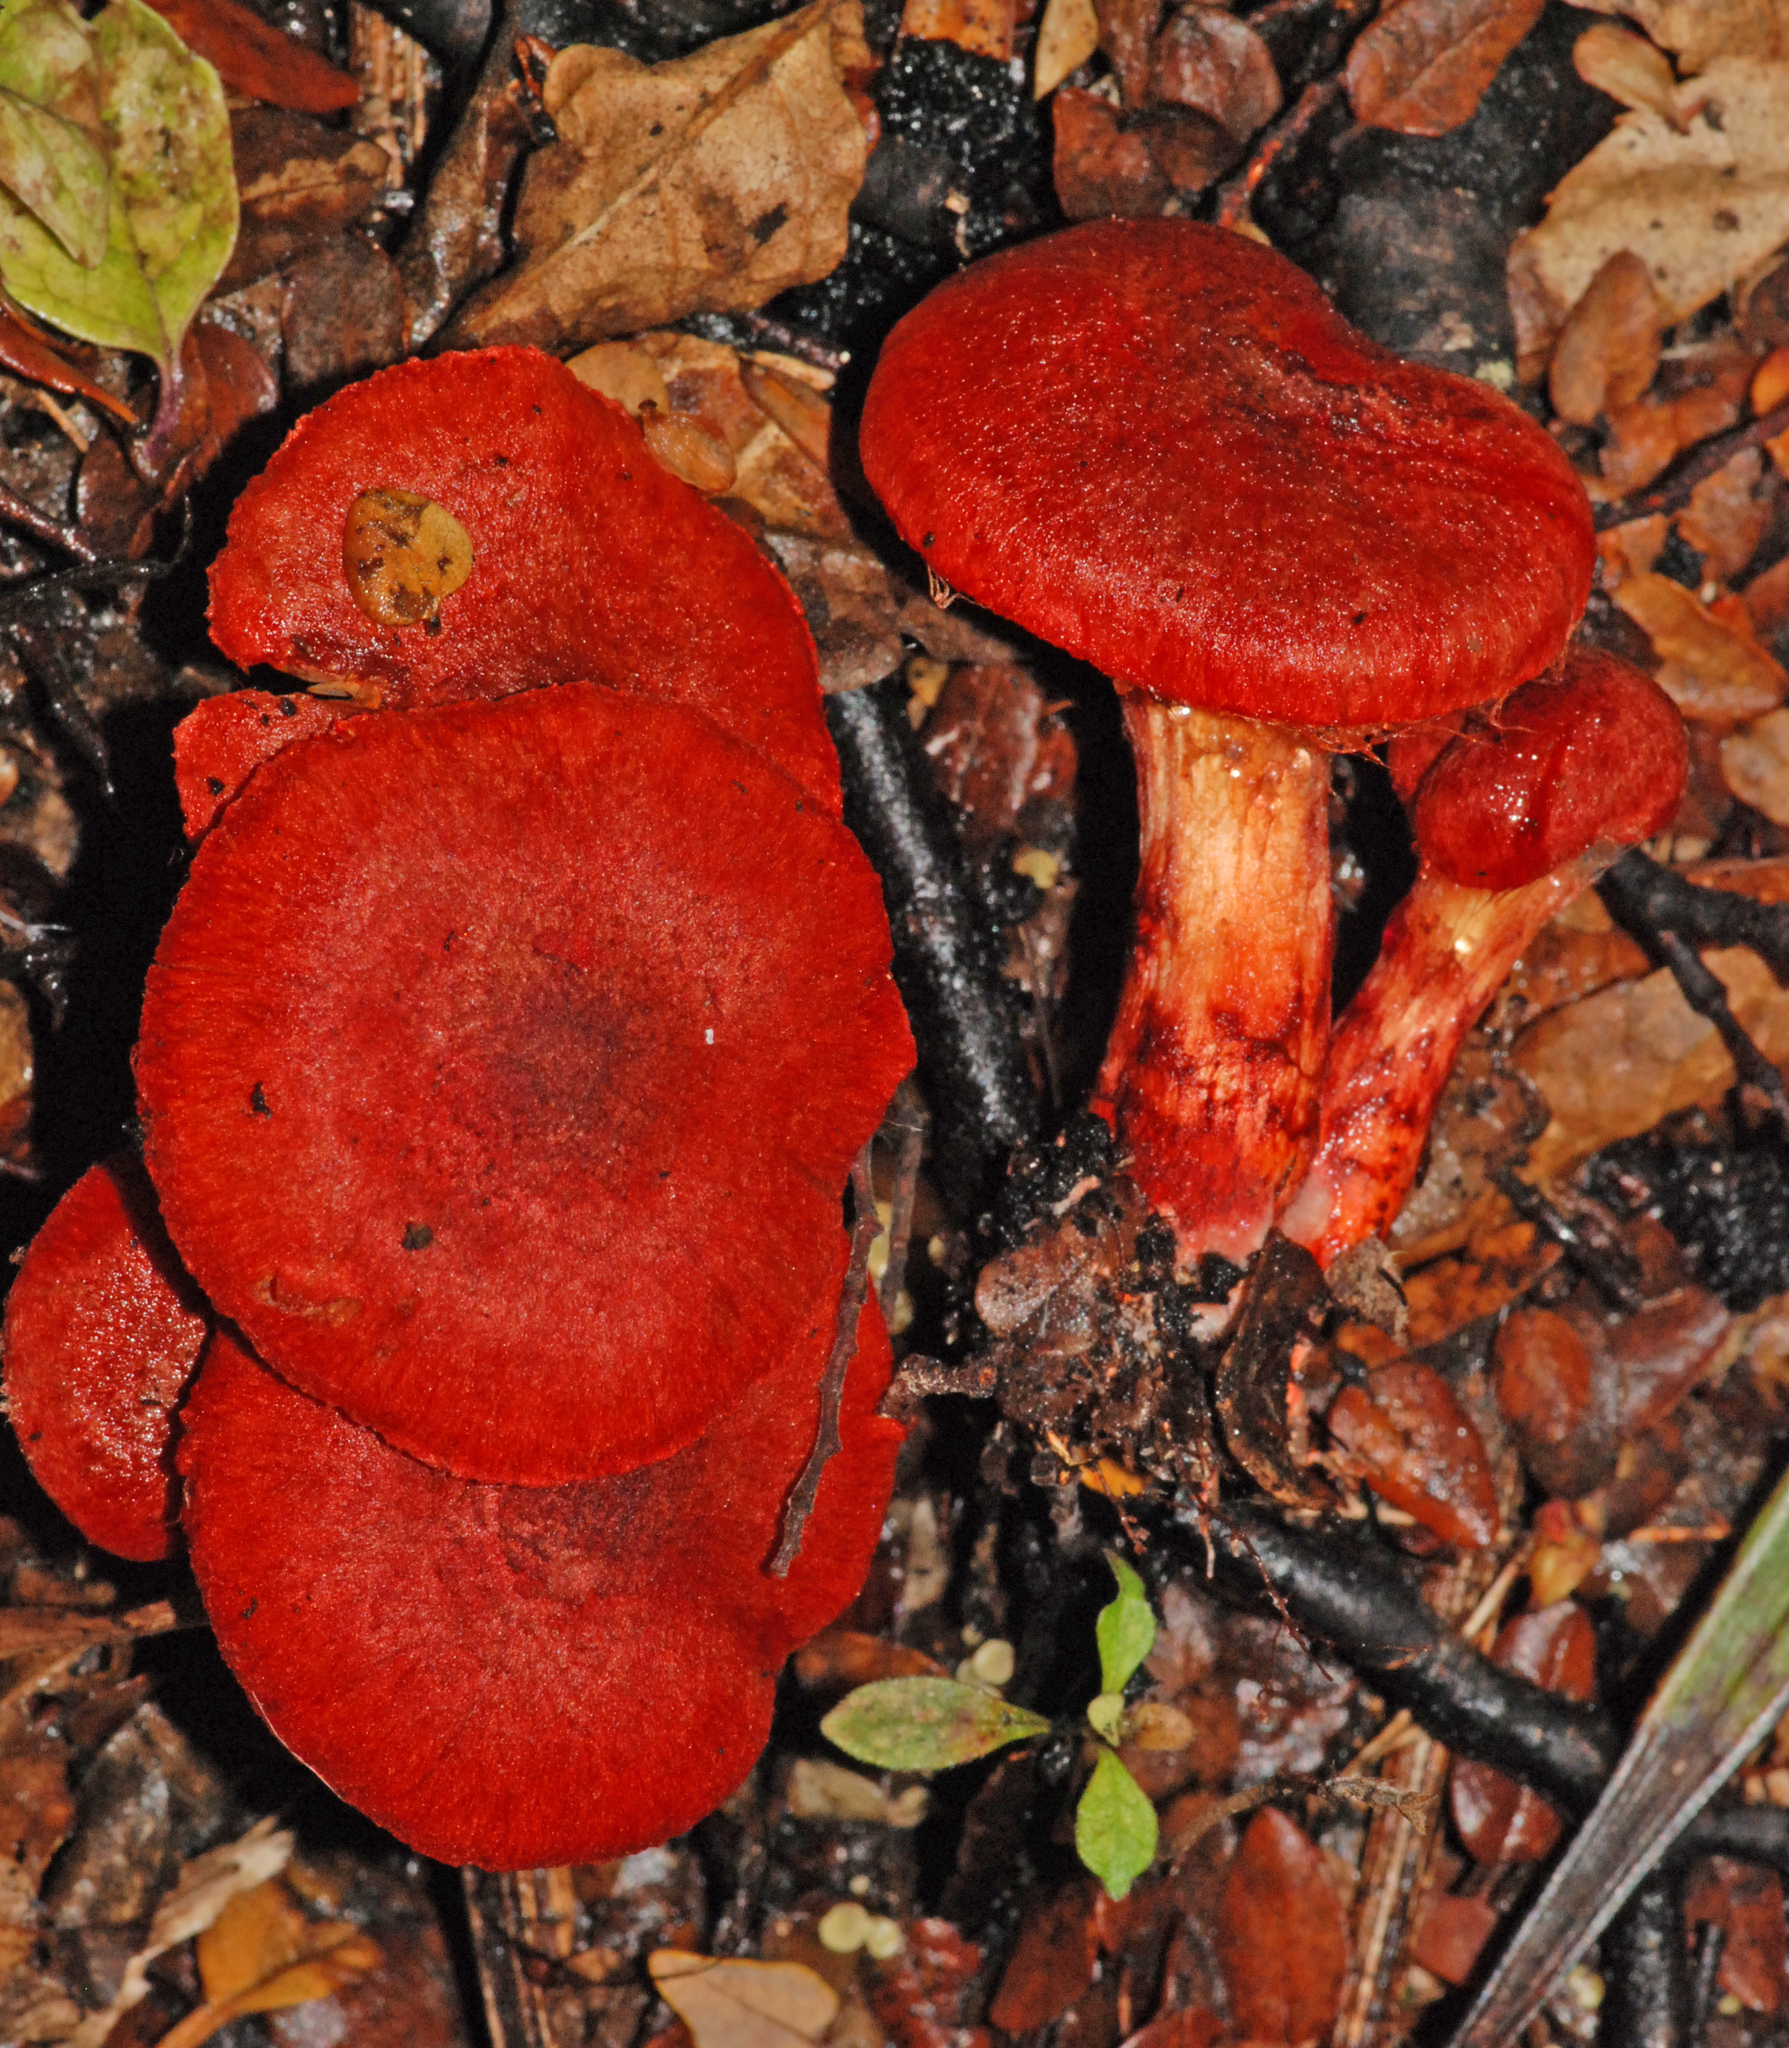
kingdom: Fungi
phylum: Basidiomycota
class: Agaricomycetes
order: Agaricales
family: Cortinariaceae
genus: Cortinarius
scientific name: Cortinarius cramesinus
